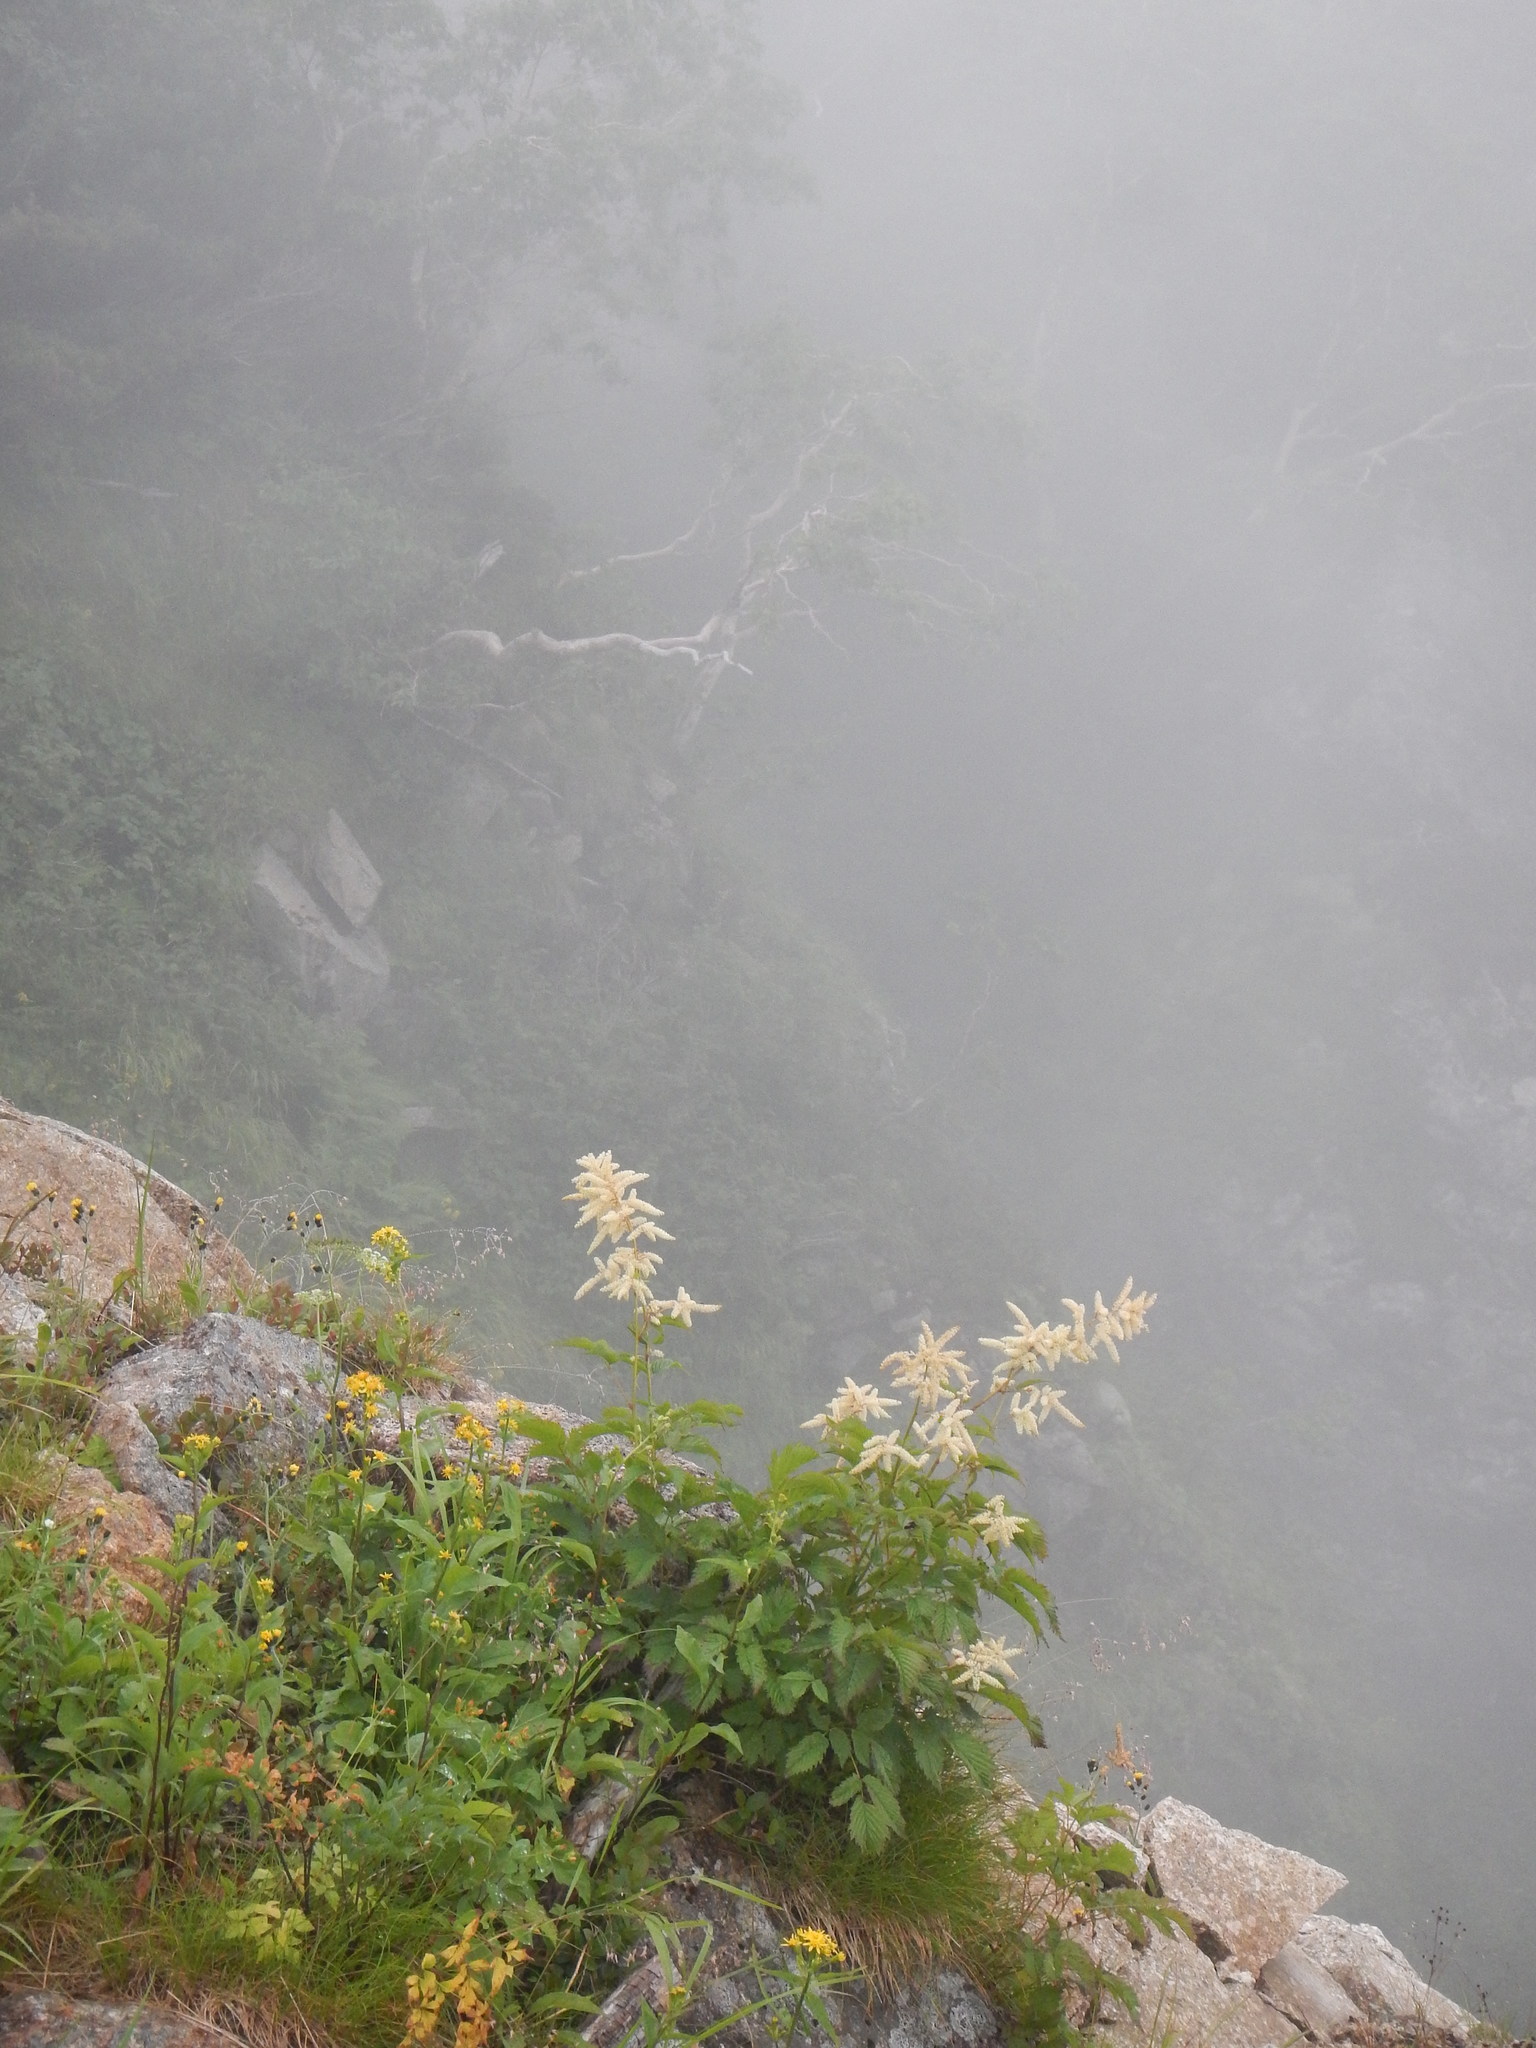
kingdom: Plantae
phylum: Tracheophyta
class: Magnoliopsida
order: Rosales
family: Rosaceae
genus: Aruncus
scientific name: Aruncus dioicus
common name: Buck's-beard
